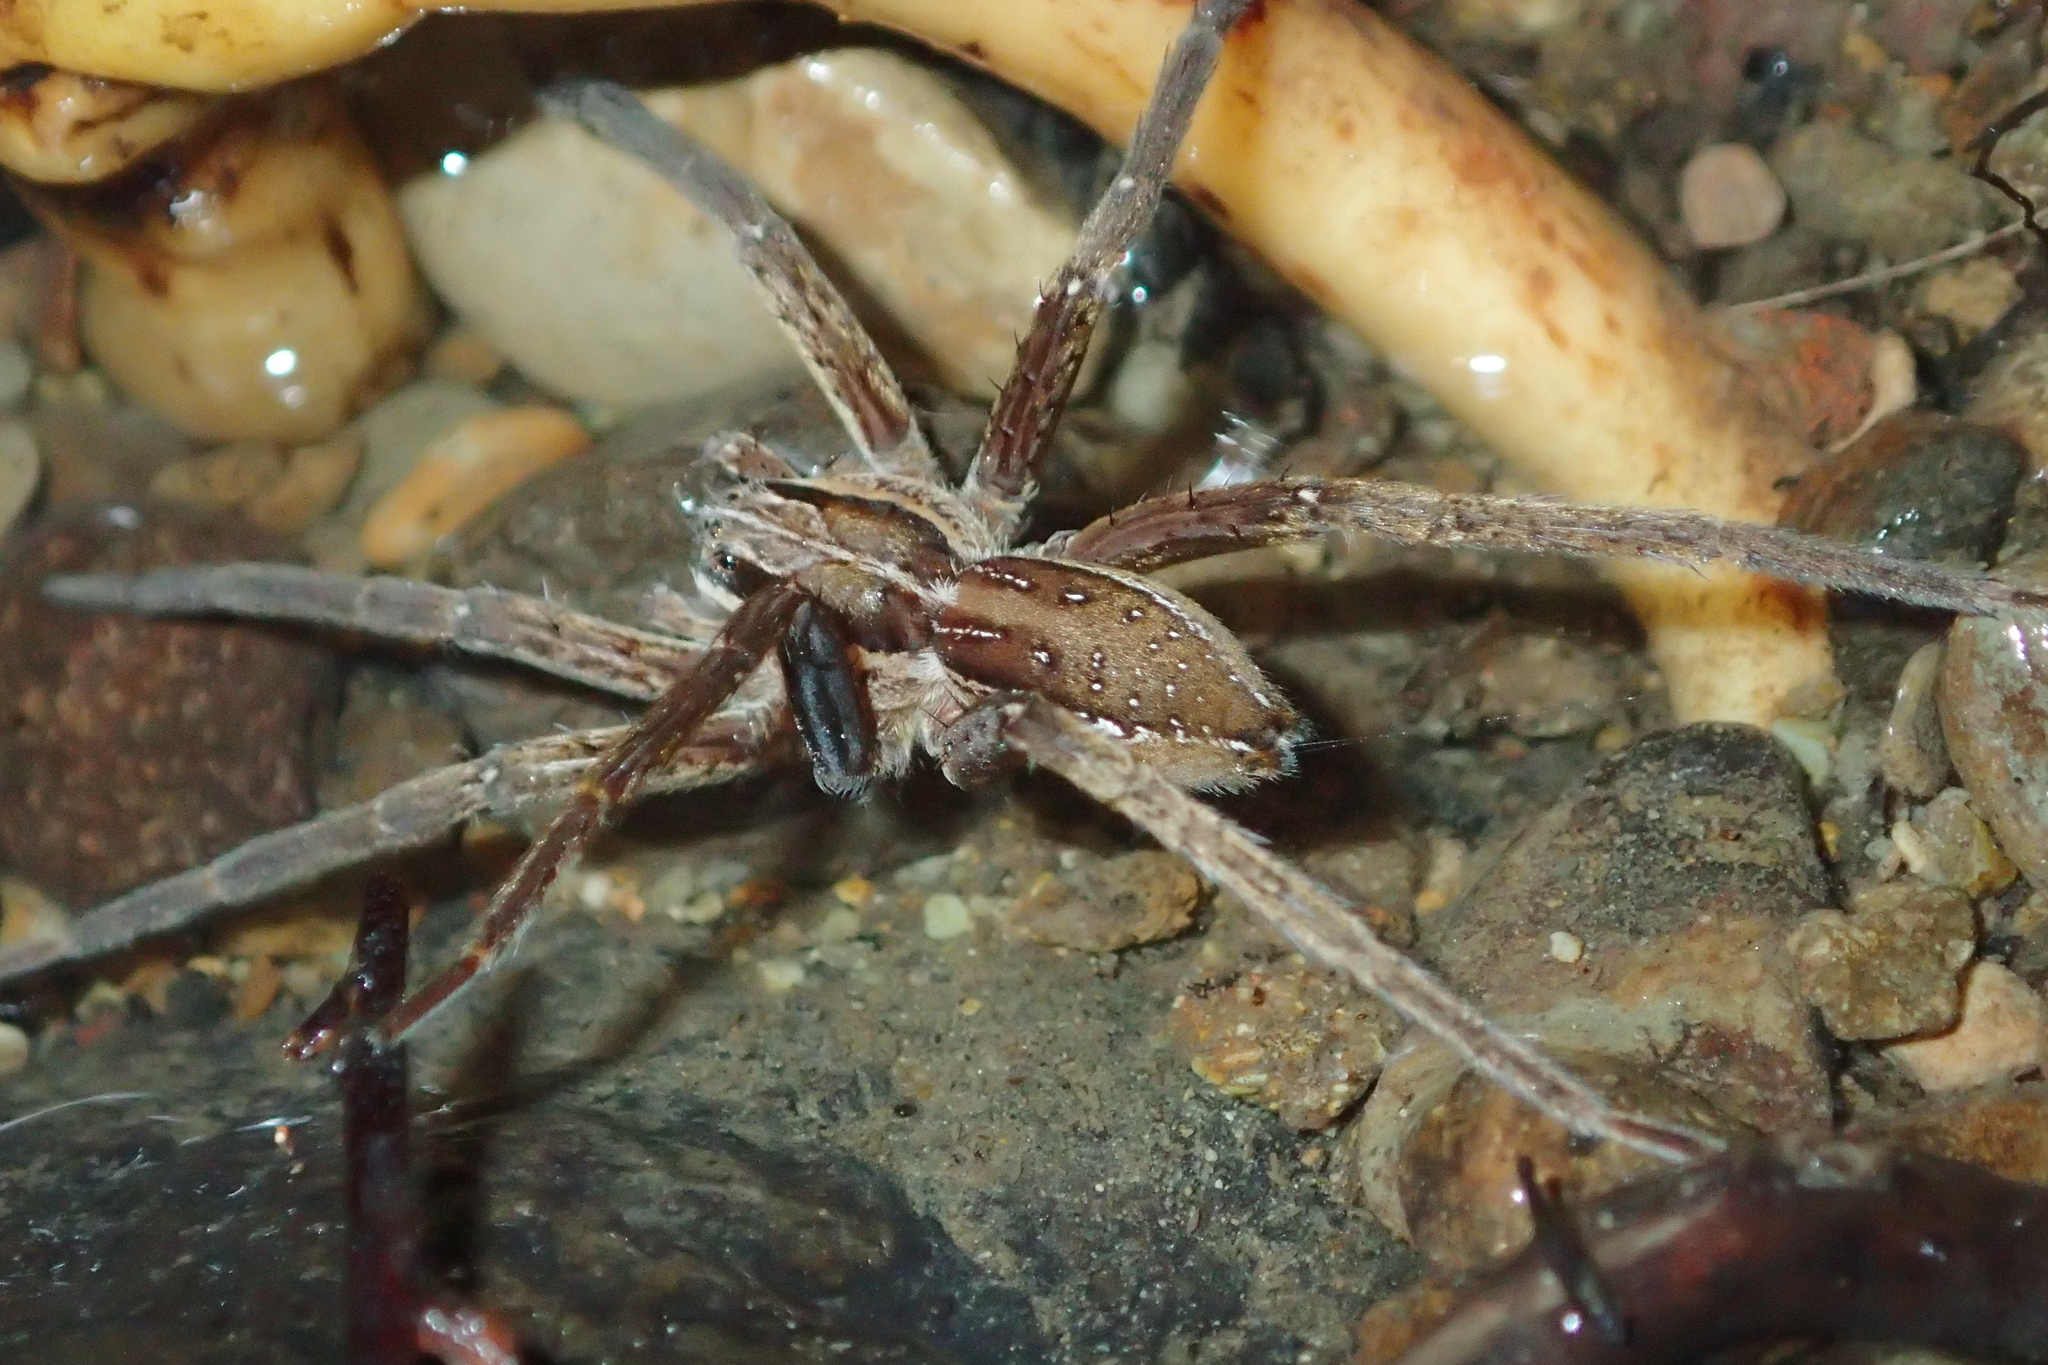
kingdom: Animalia
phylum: Arthropoda
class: Arachnida
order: Araneae
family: Pisauridae
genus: Dolomedes
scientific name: Dolomedes minor
